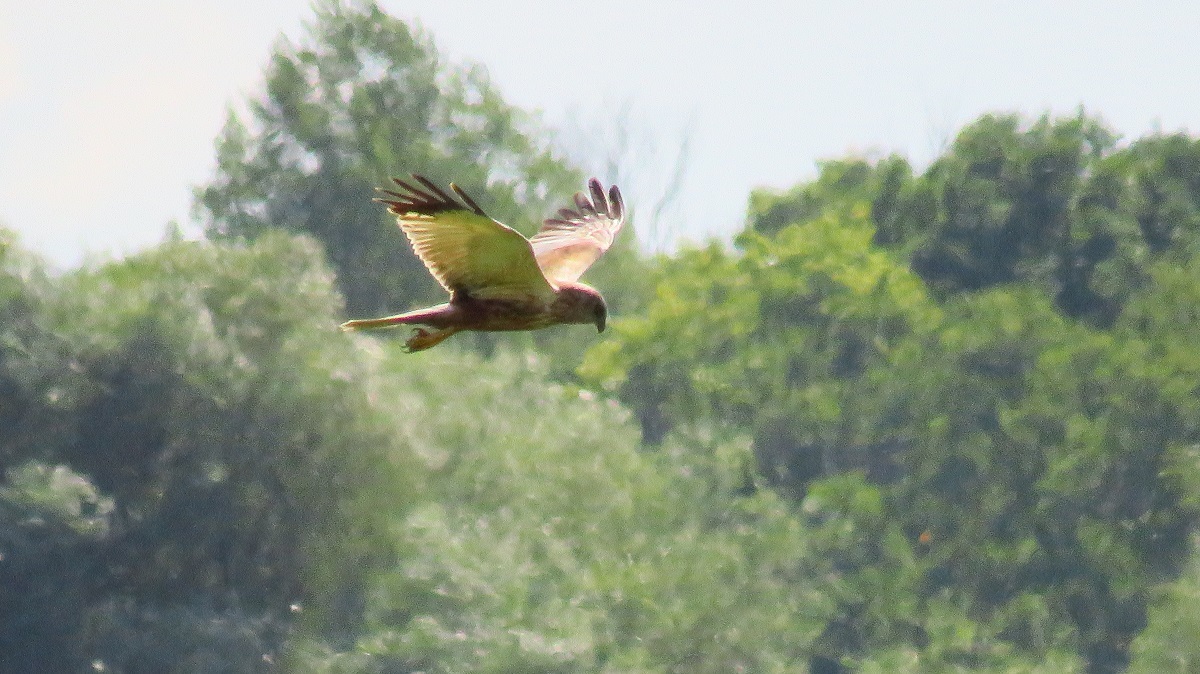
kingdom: Animalia
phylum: Chordata
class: Aves
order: Accipitriformes
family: Accipitridae
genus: Circus
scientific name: Circus aeruginosus
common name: Western marsh harrier
